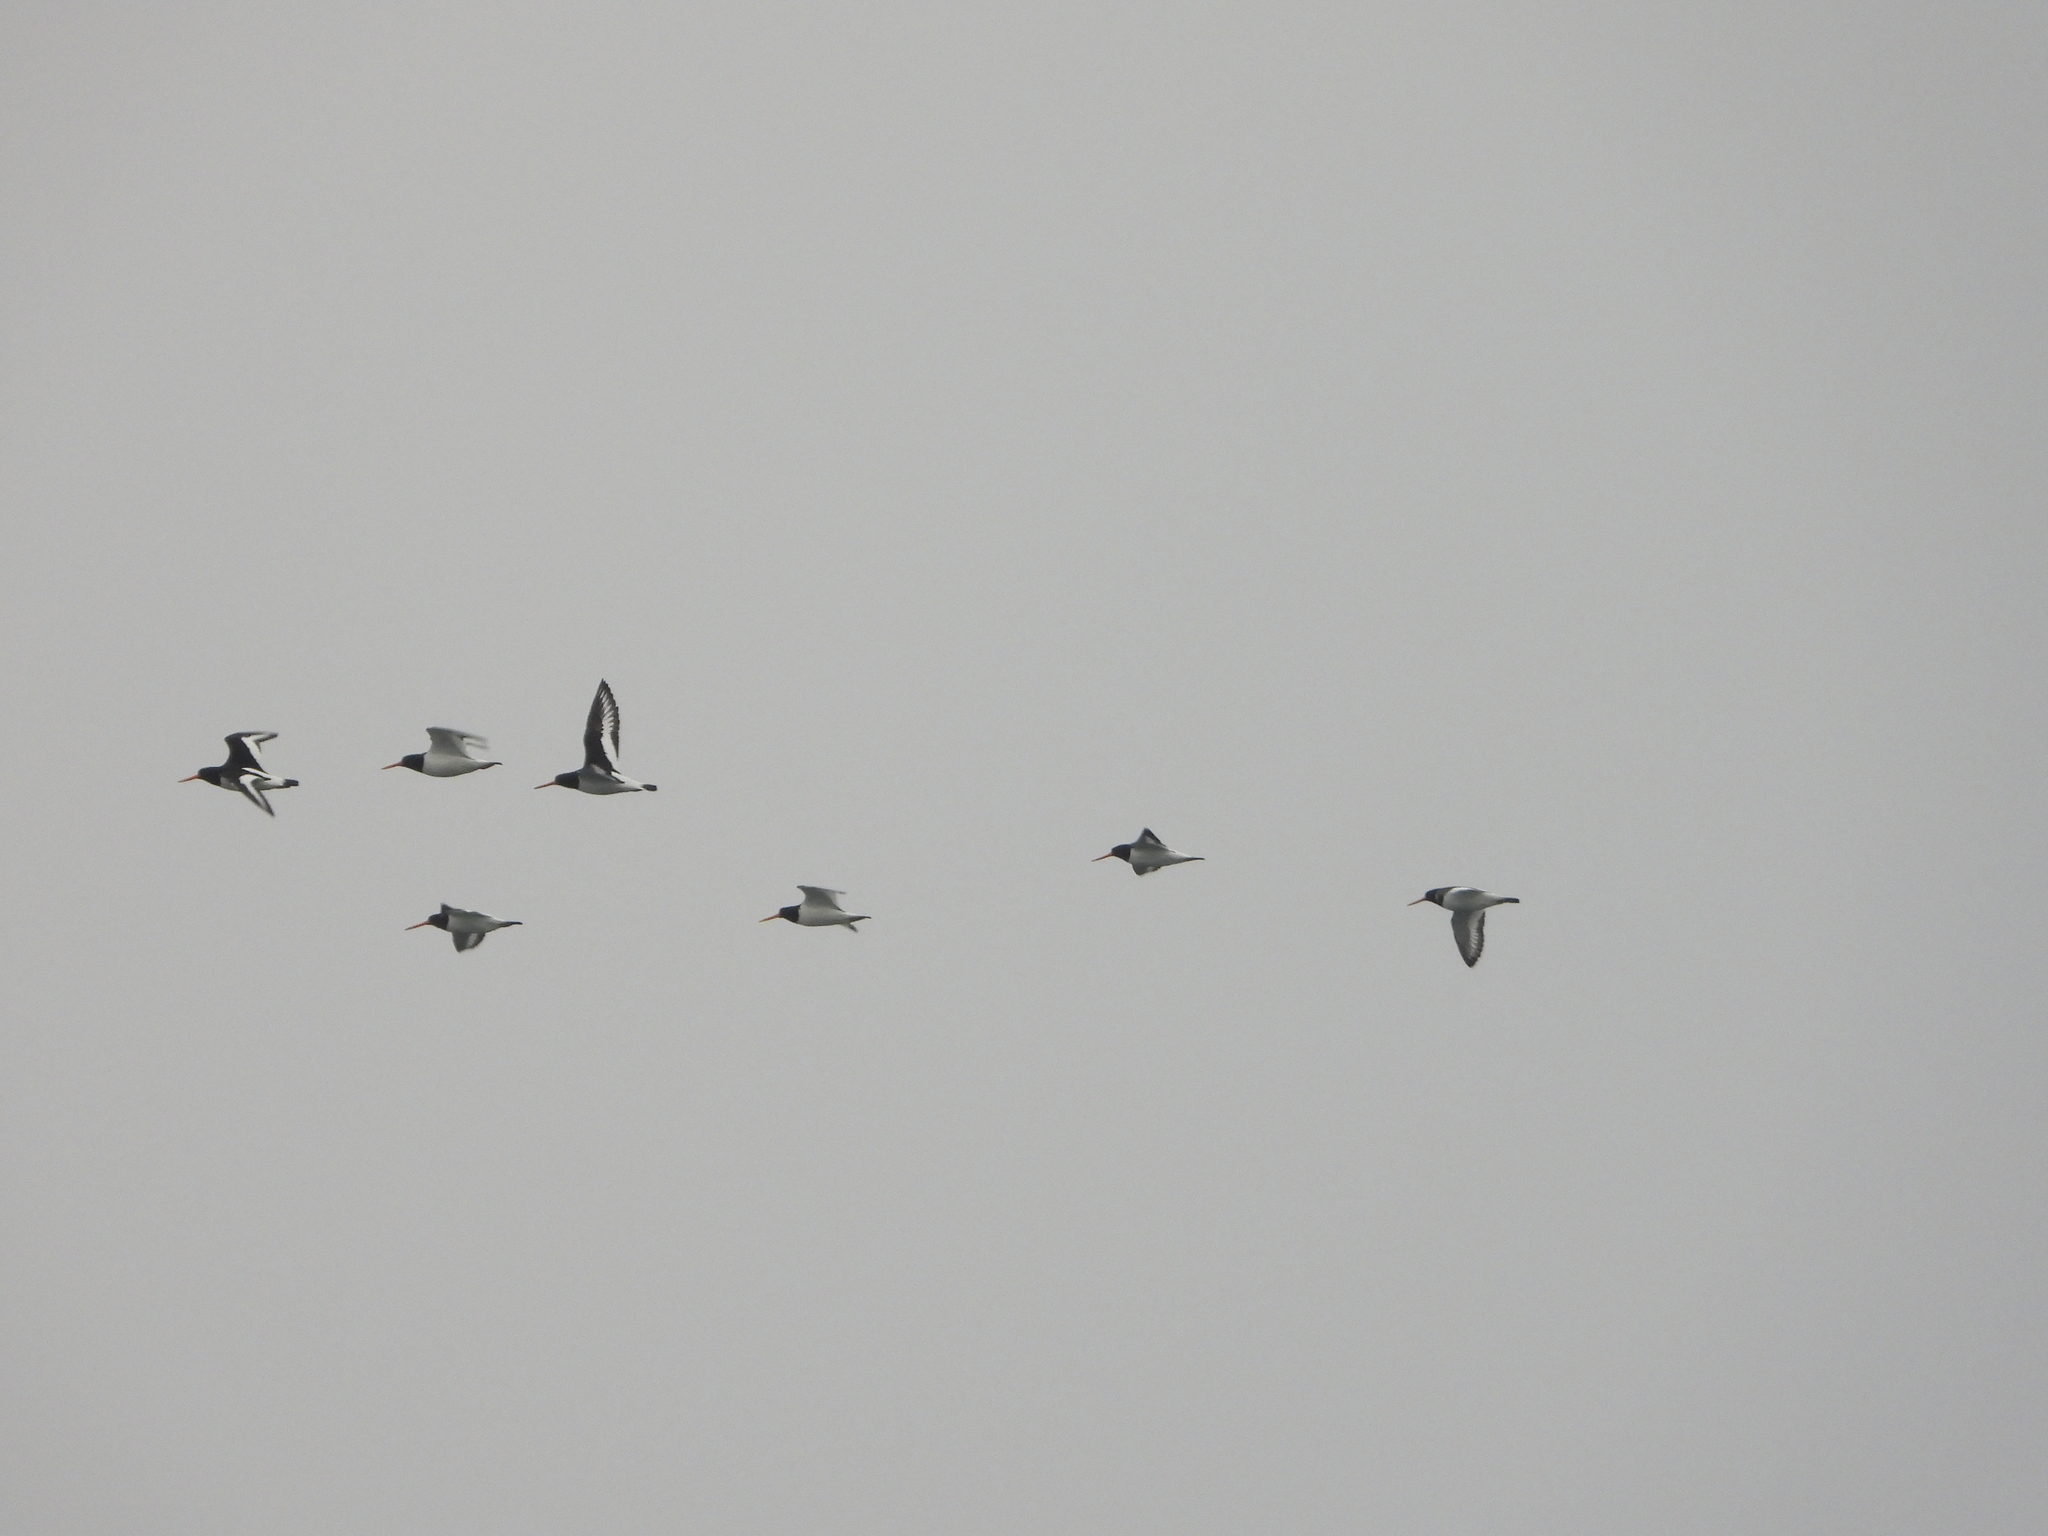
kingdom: Animalia
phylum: Chordata
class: Aves
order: Charadriiformes
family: Haematopodidae
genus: Haematopus
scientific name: Haematopus ostralegus
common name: Eurasian oystercatcher
